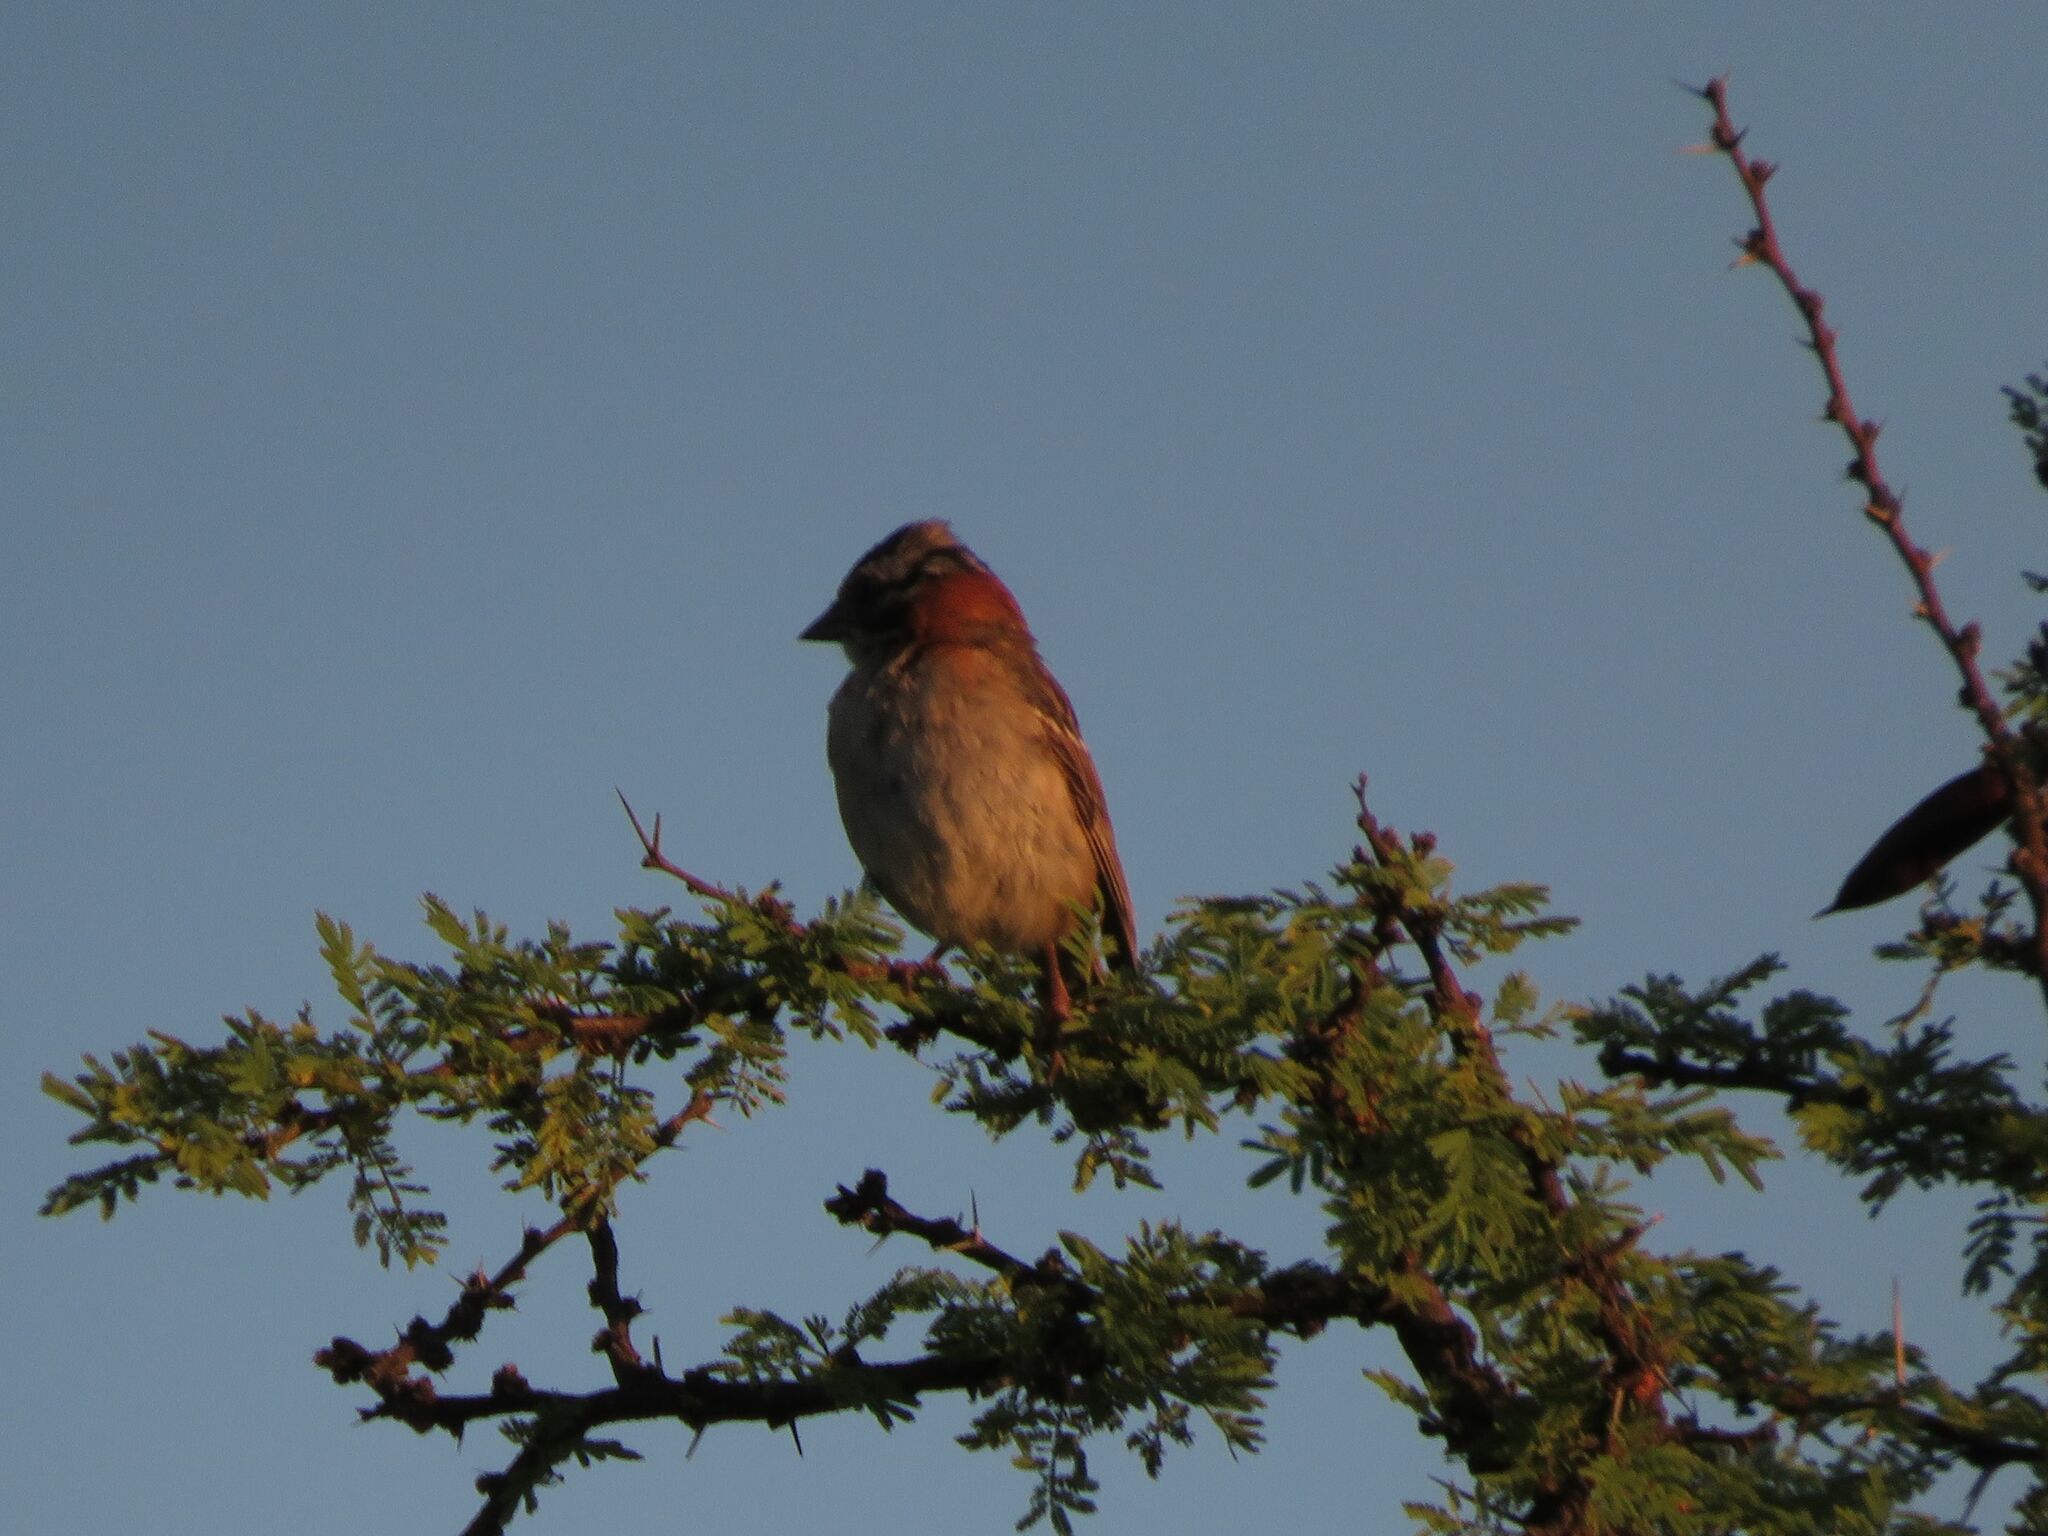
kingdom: Animalia
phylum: Chordata
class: Aves
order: Passeriformes
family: Passerellidae
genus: Zonotrichia
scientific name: Zonotrichia capensis
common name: Rufous-collared sparrow
